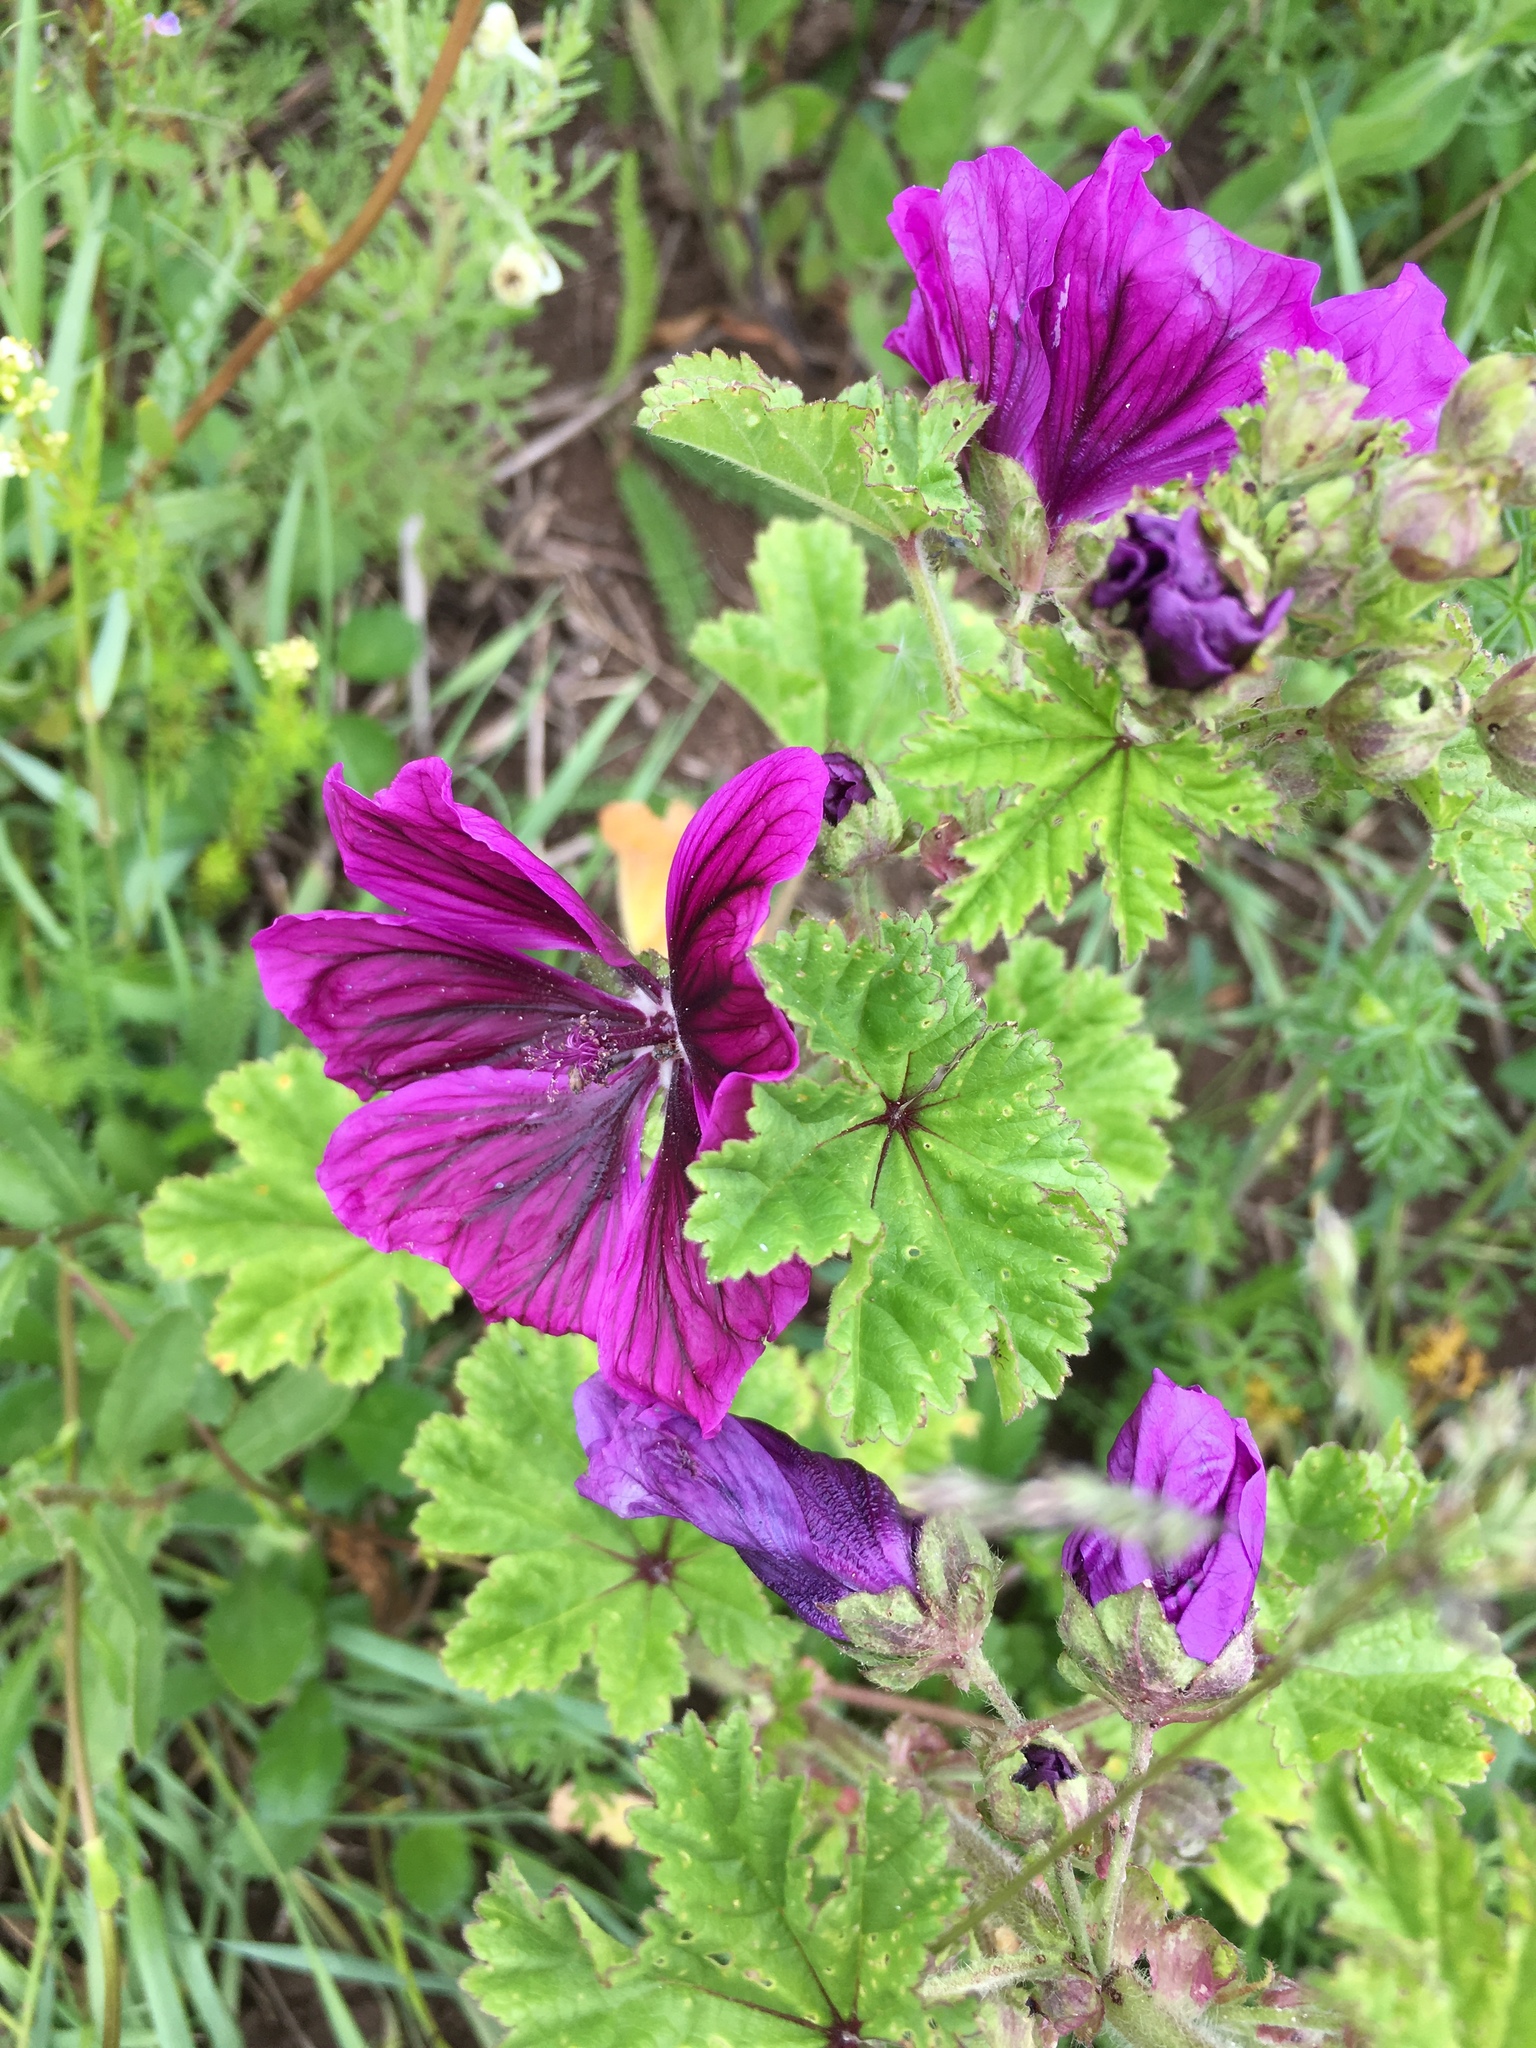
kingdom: Plantae
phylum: Tracheophyta
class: Magnoliopsida
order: Malvales
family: Malvaceae
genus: Malva
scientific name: Malva sylvestris
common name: Common mallow
